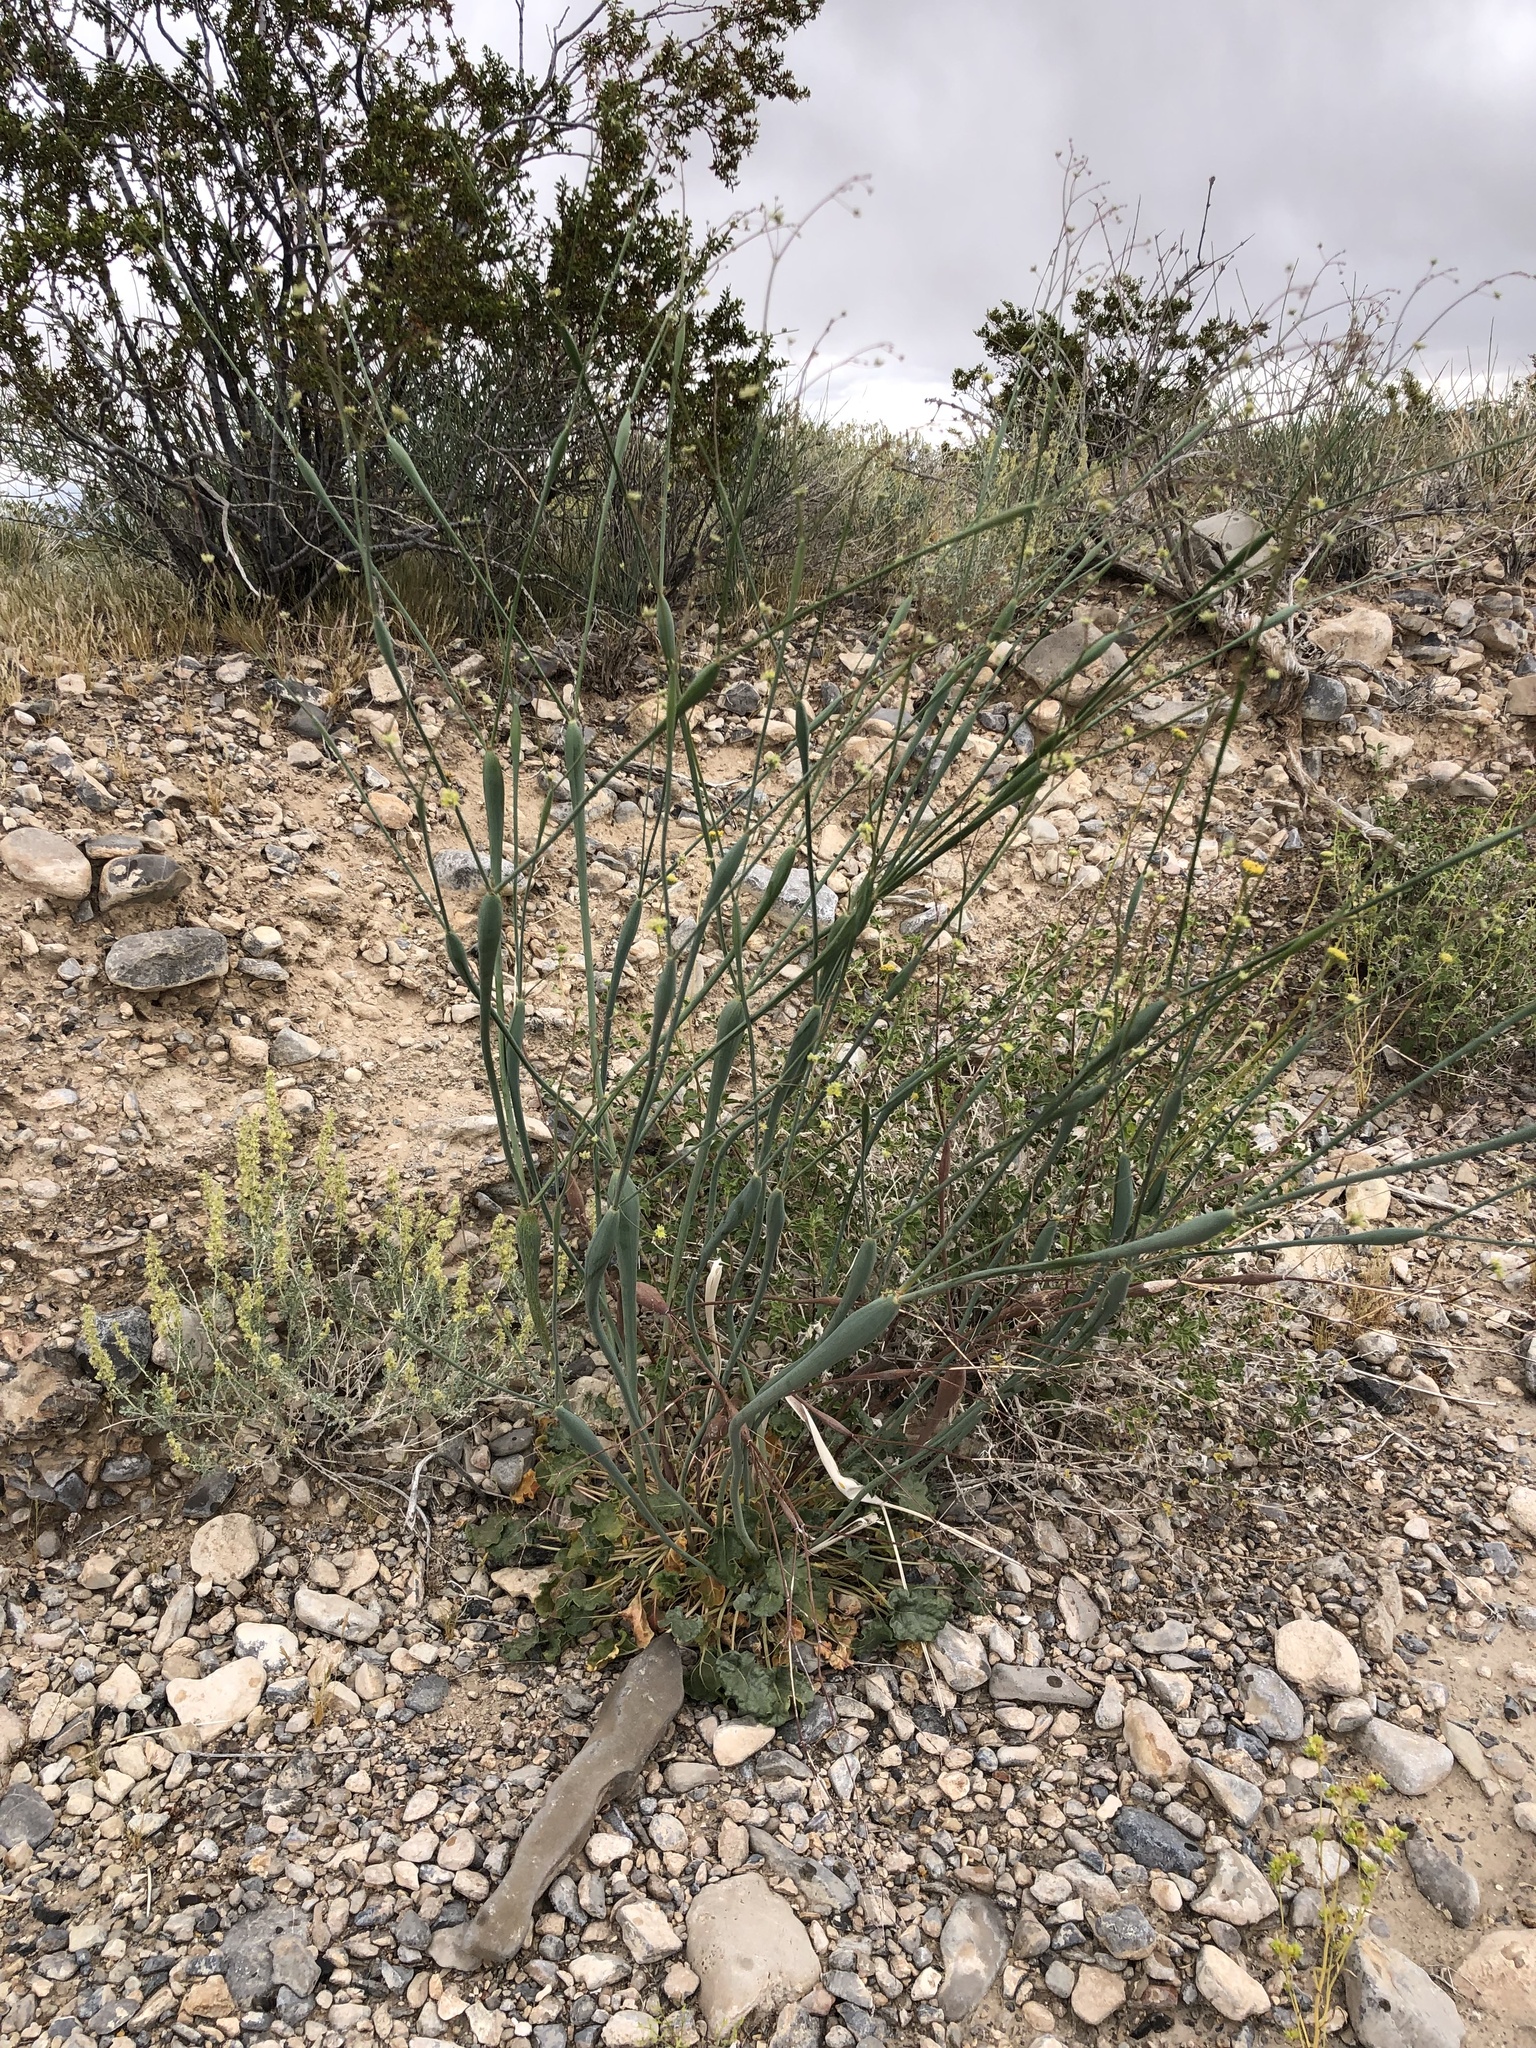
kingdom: Plantae
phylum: Tracheophyta
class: Magnoliopsida
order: Caryophyllales
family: Polygonaceae
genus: Eriogonum
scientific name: Eriogonum inflatum
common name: Desert trumpet
